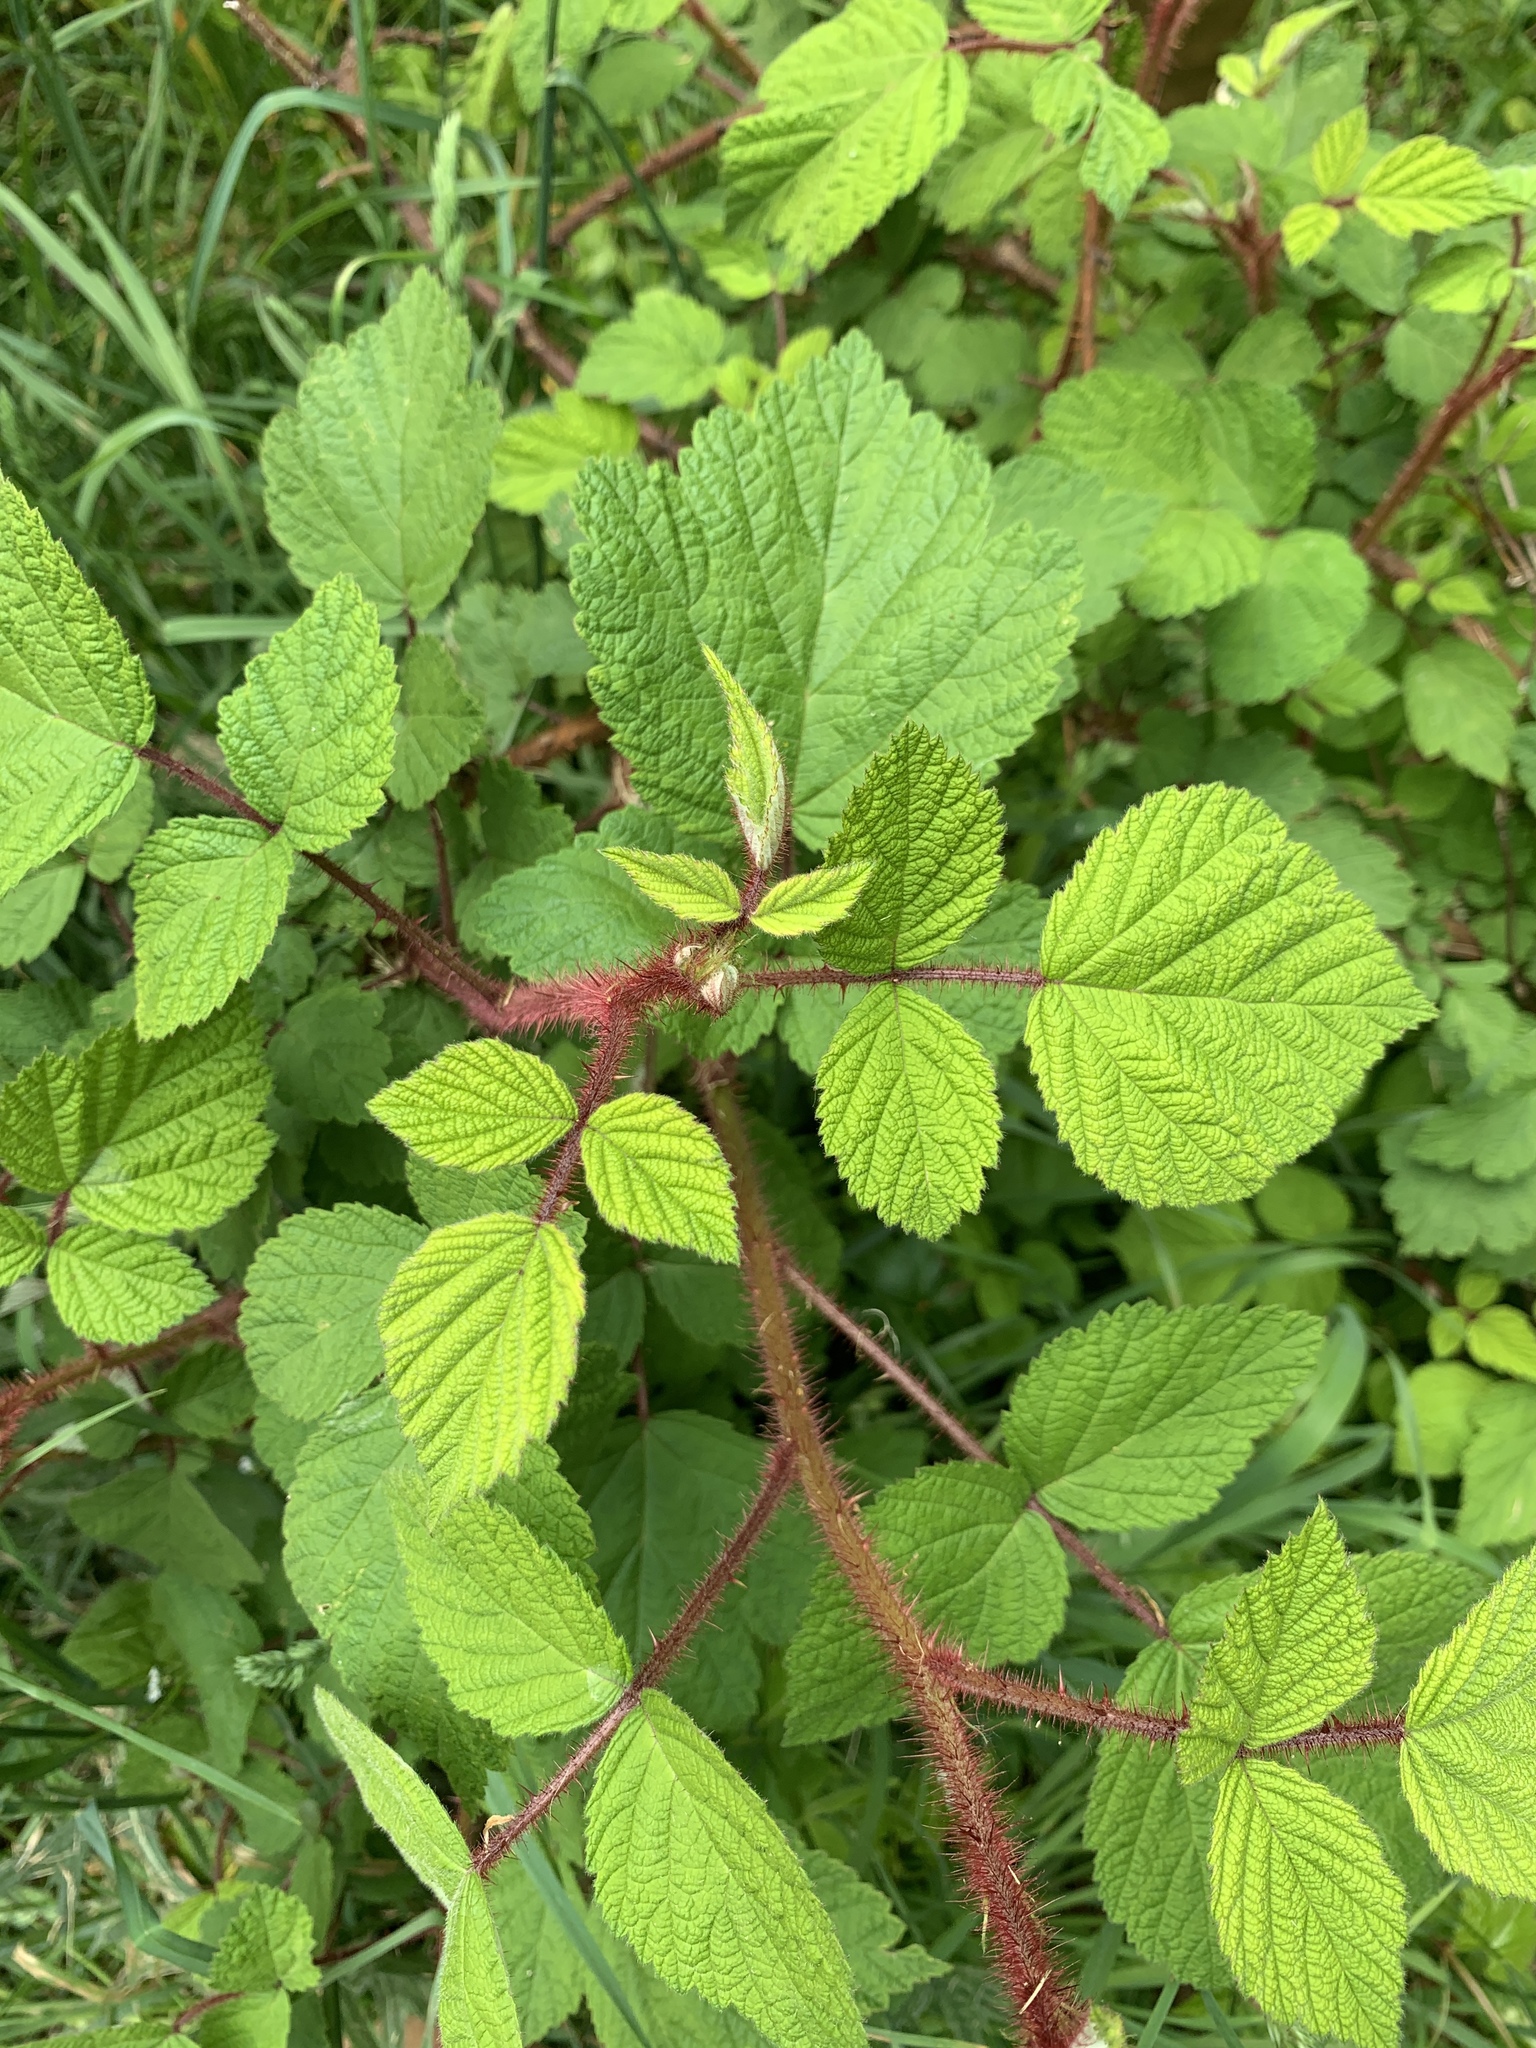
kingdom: Plantae
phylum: Tracheophyta
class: Magnoliopsida
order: Rosales
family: Rosaceae
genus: Rubus
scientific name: Rubus phoenicolasius
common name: Japanese wineberry
